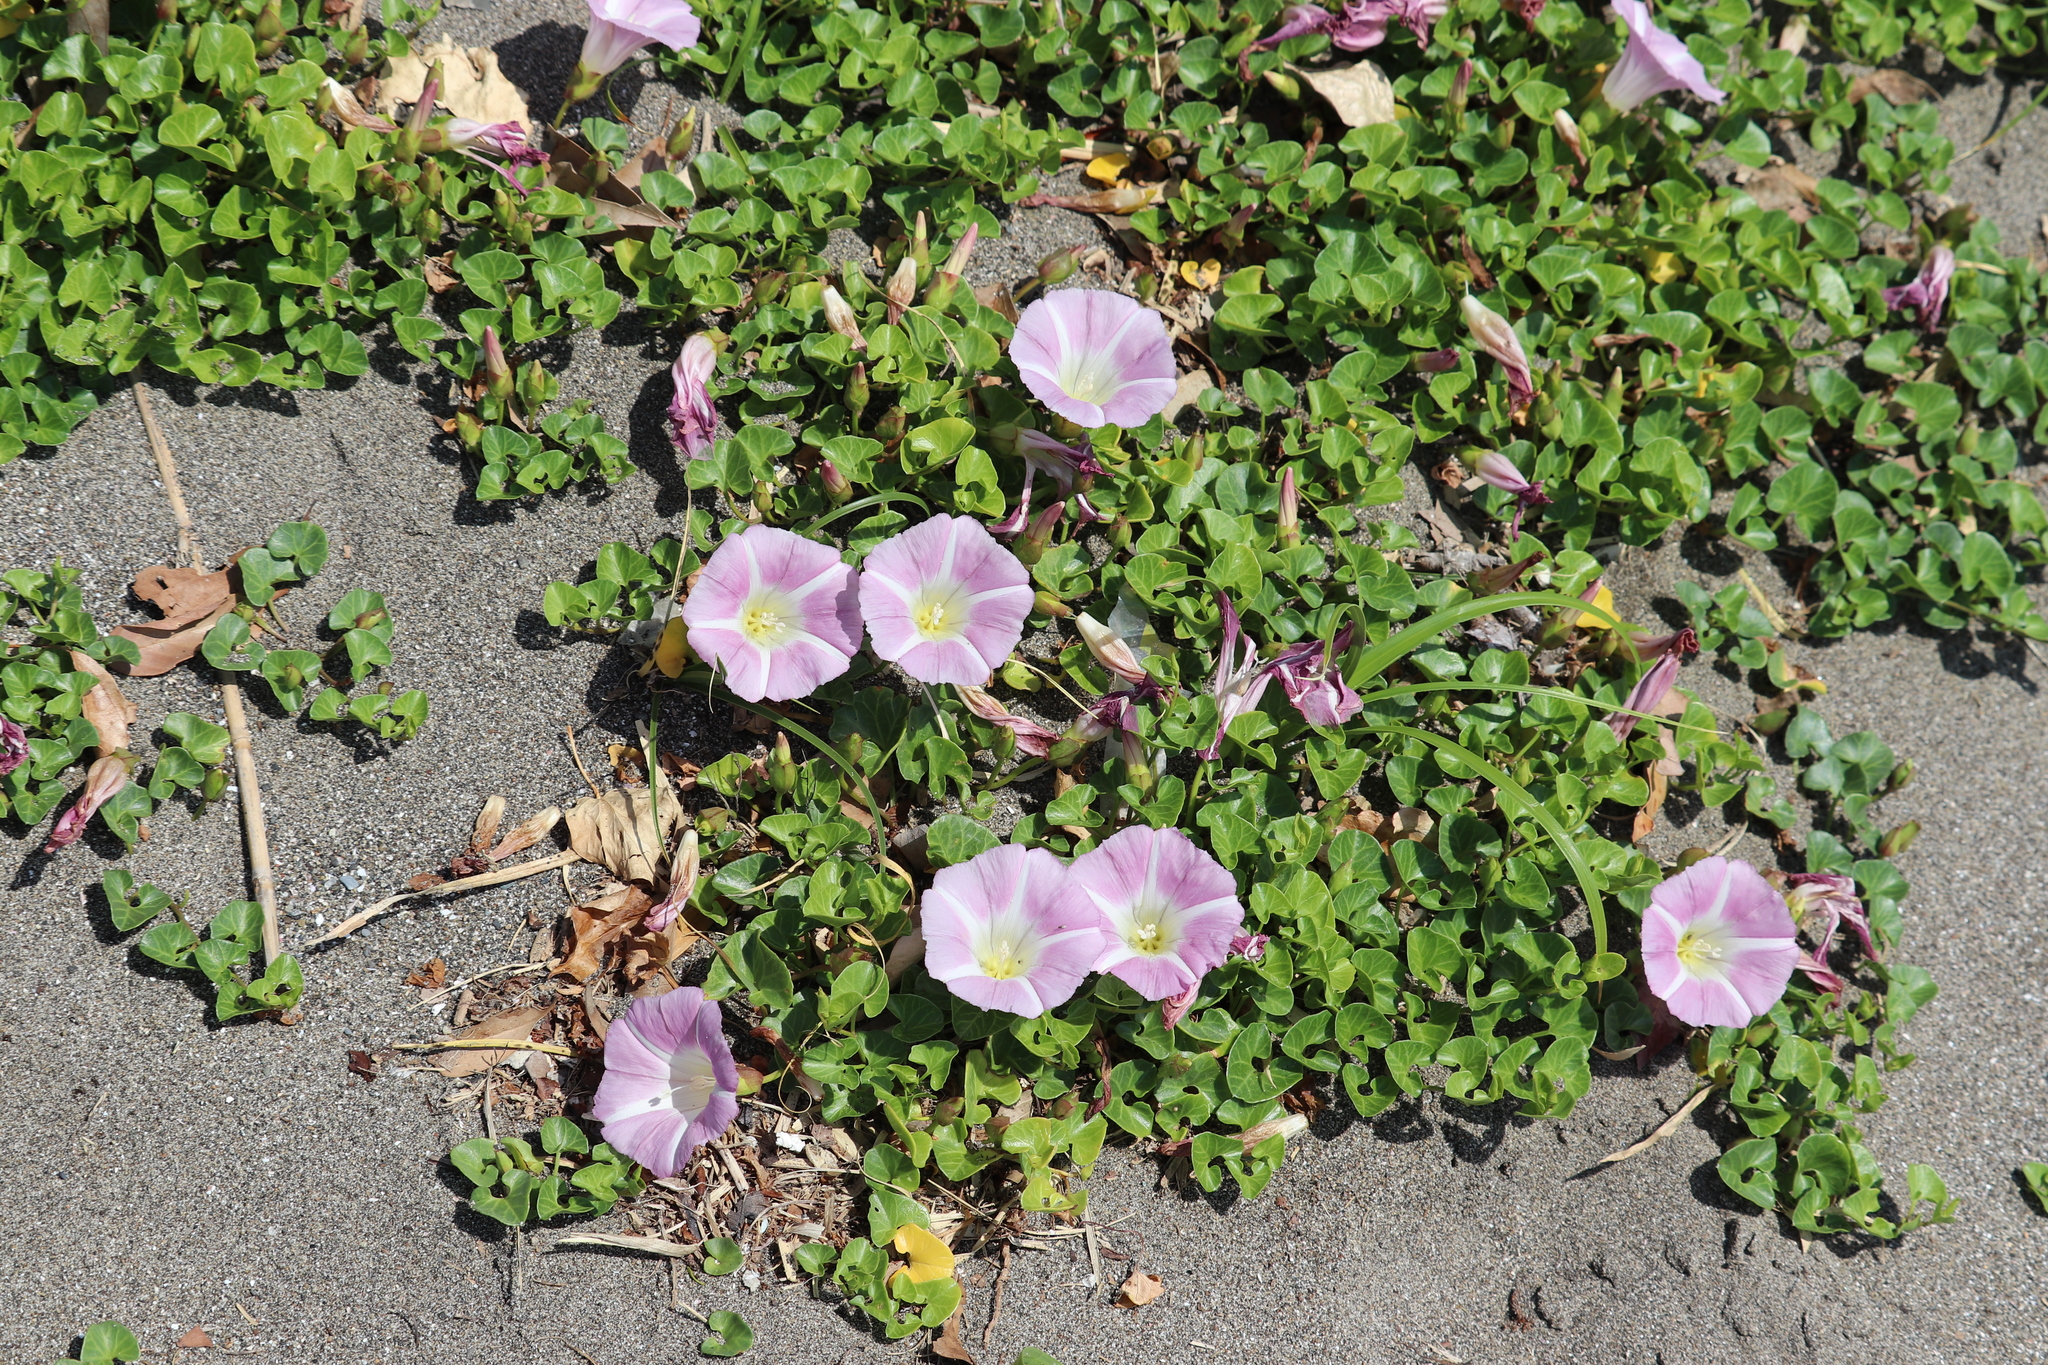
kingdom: Plantae
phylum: Tracheophyta
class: Magnoliopsida
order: Solanales
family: Convolvulaceae
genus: Calystegia
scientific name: Calystegia soldanella
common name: Sea bindweed
